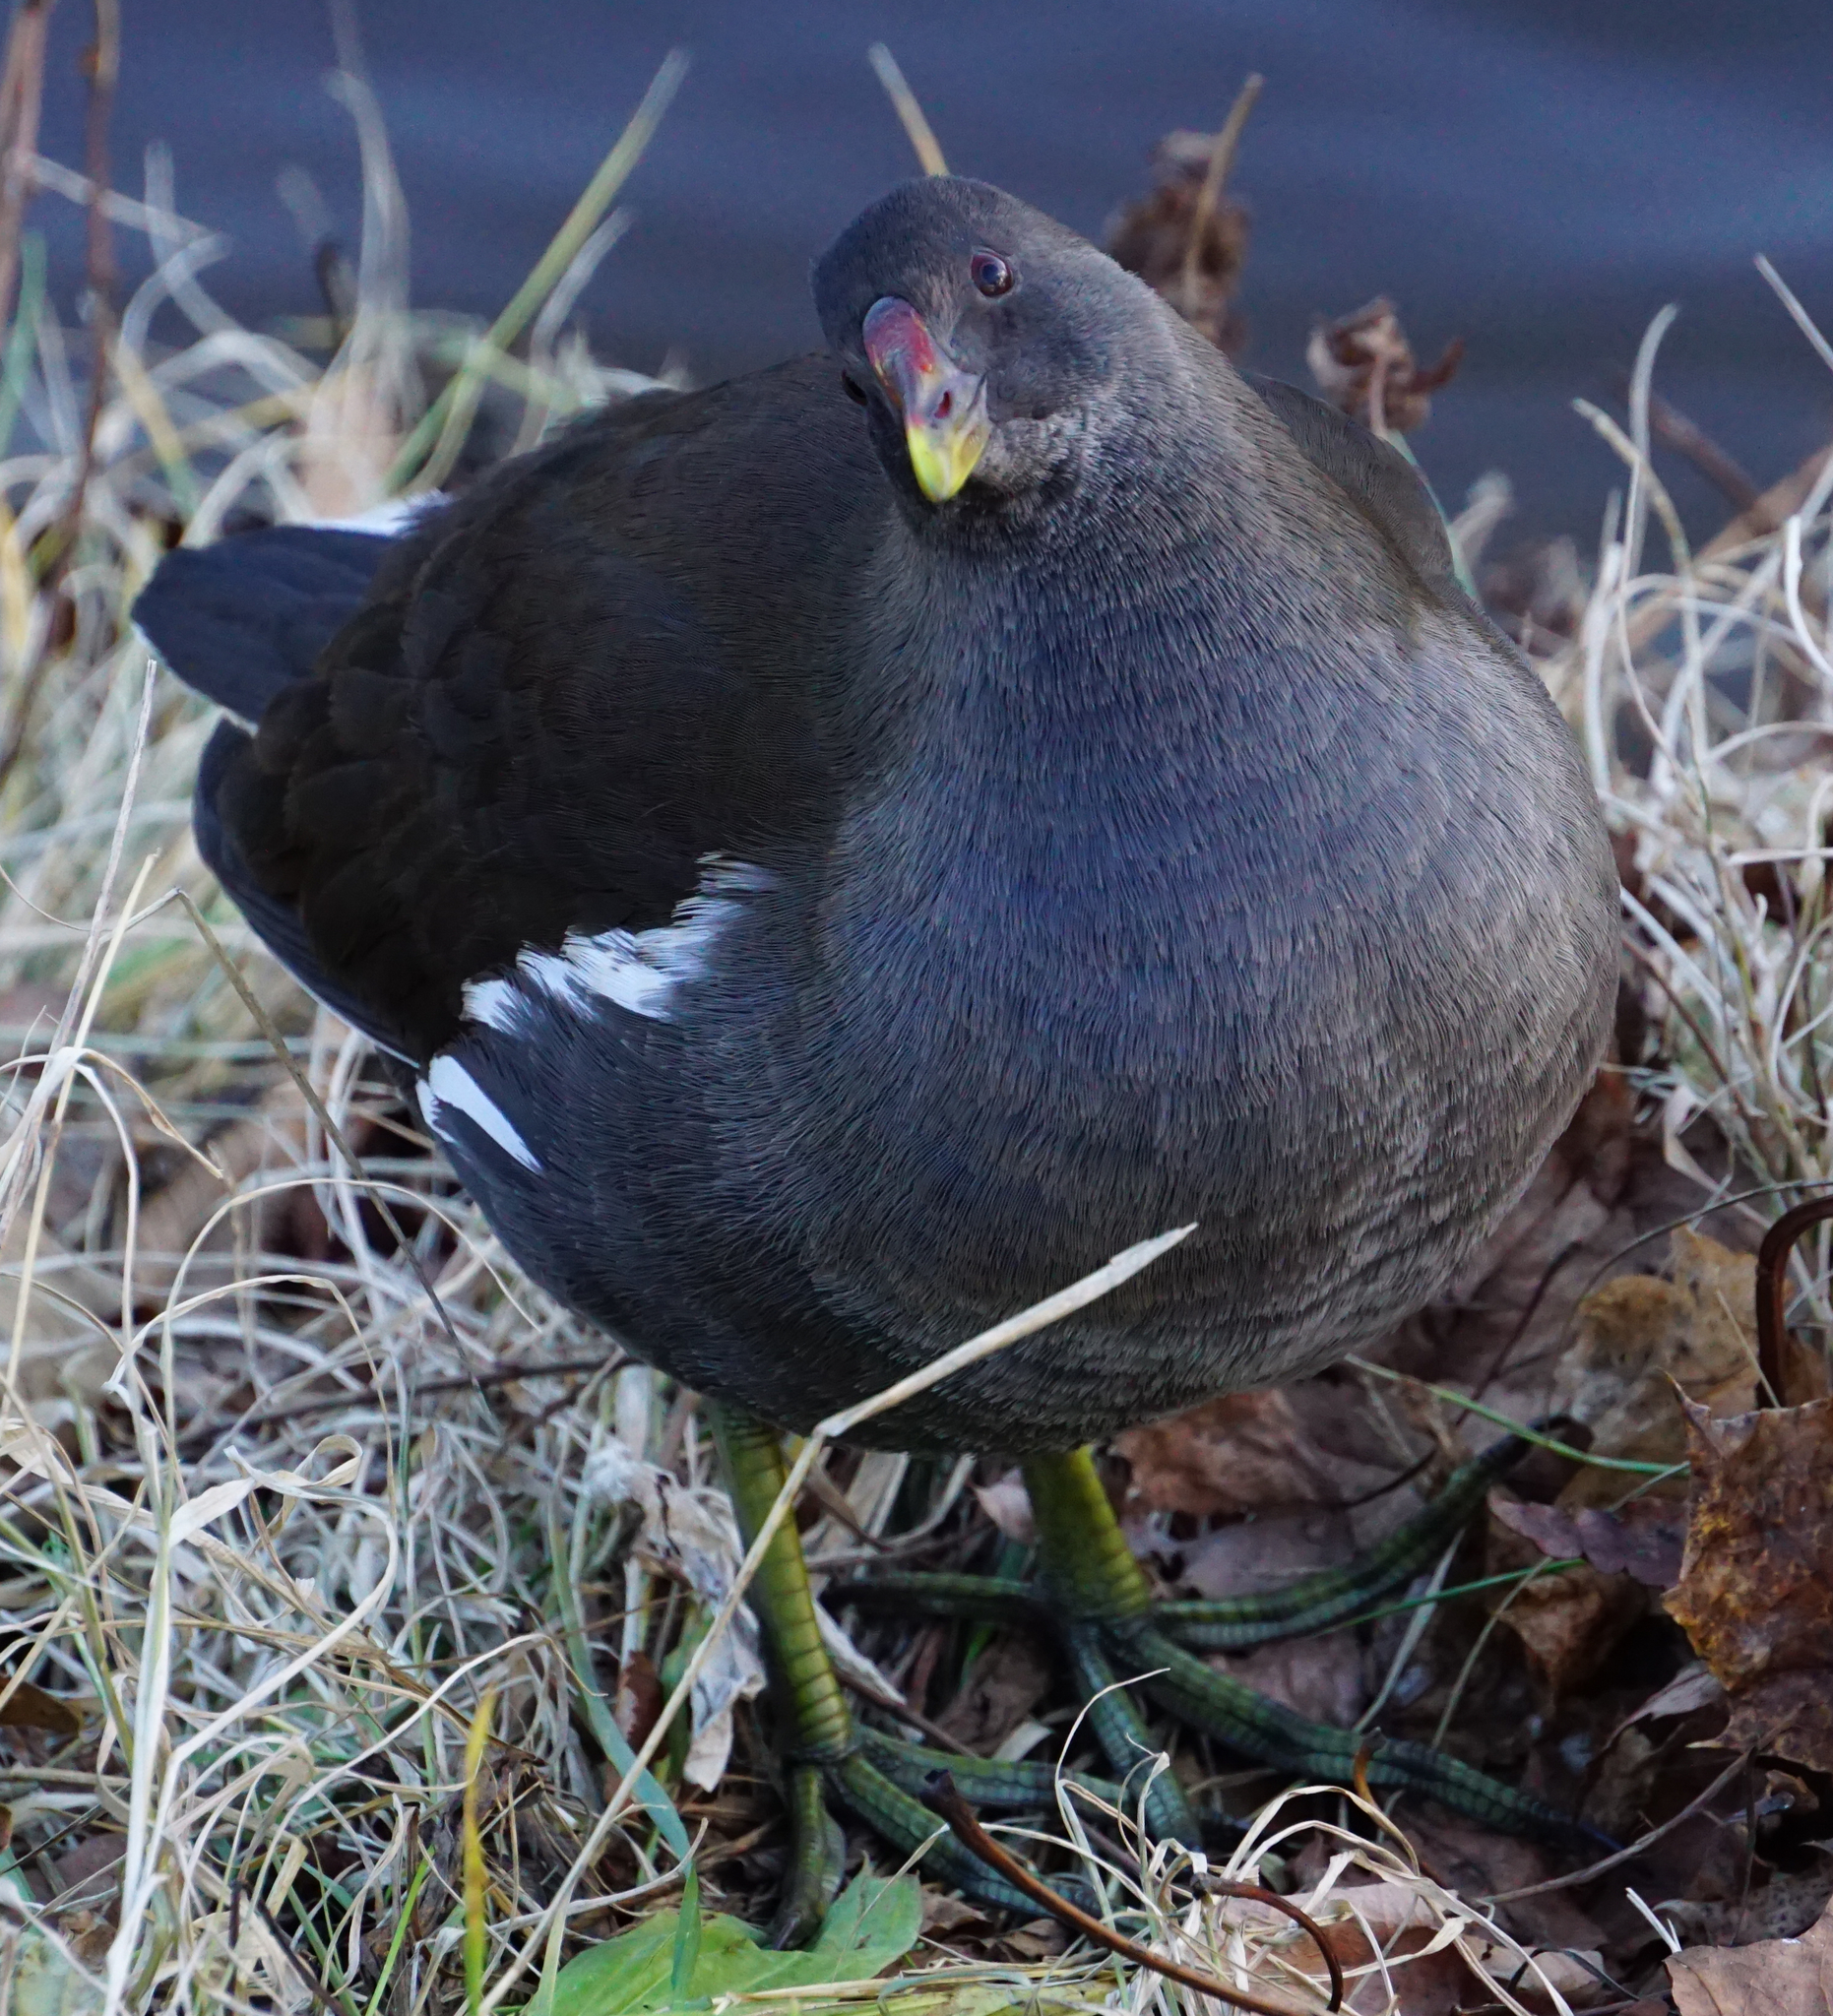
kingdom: Animalia
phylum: Chordata
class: Aves
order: Gruiformes
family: Rallidae
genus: Gallinula
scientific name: Gallinula chloropus
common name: Common moorhen
